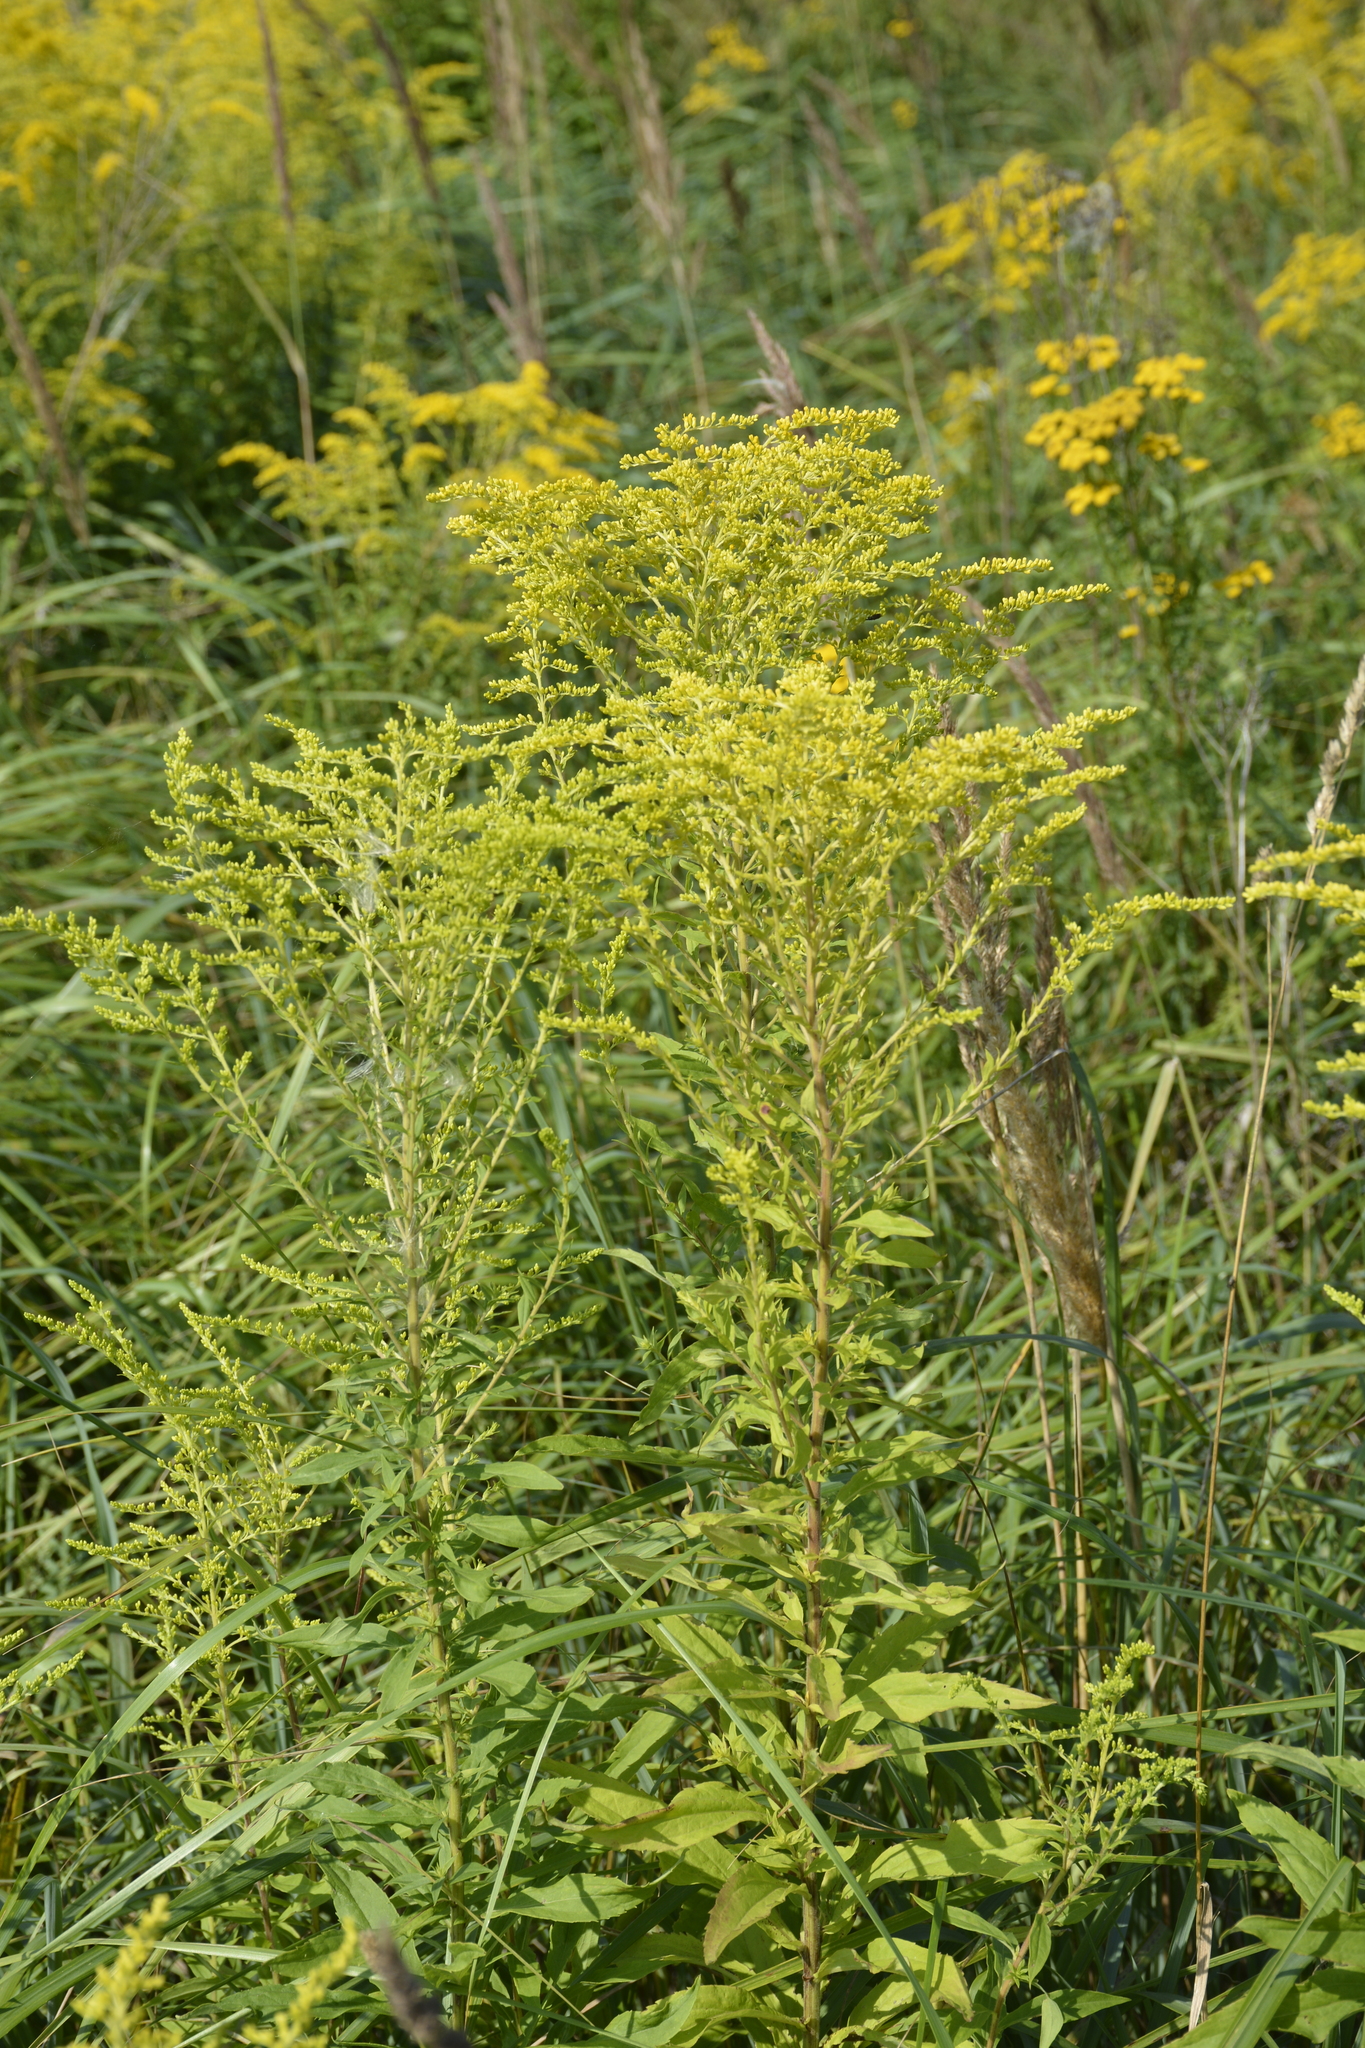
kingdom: Plantae
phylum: Tracheophyta
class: Magnoliopsida
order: Asterales
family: Asteraceae
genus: Solidago
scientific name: Solidago gigantea
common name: Giant goldenrod
